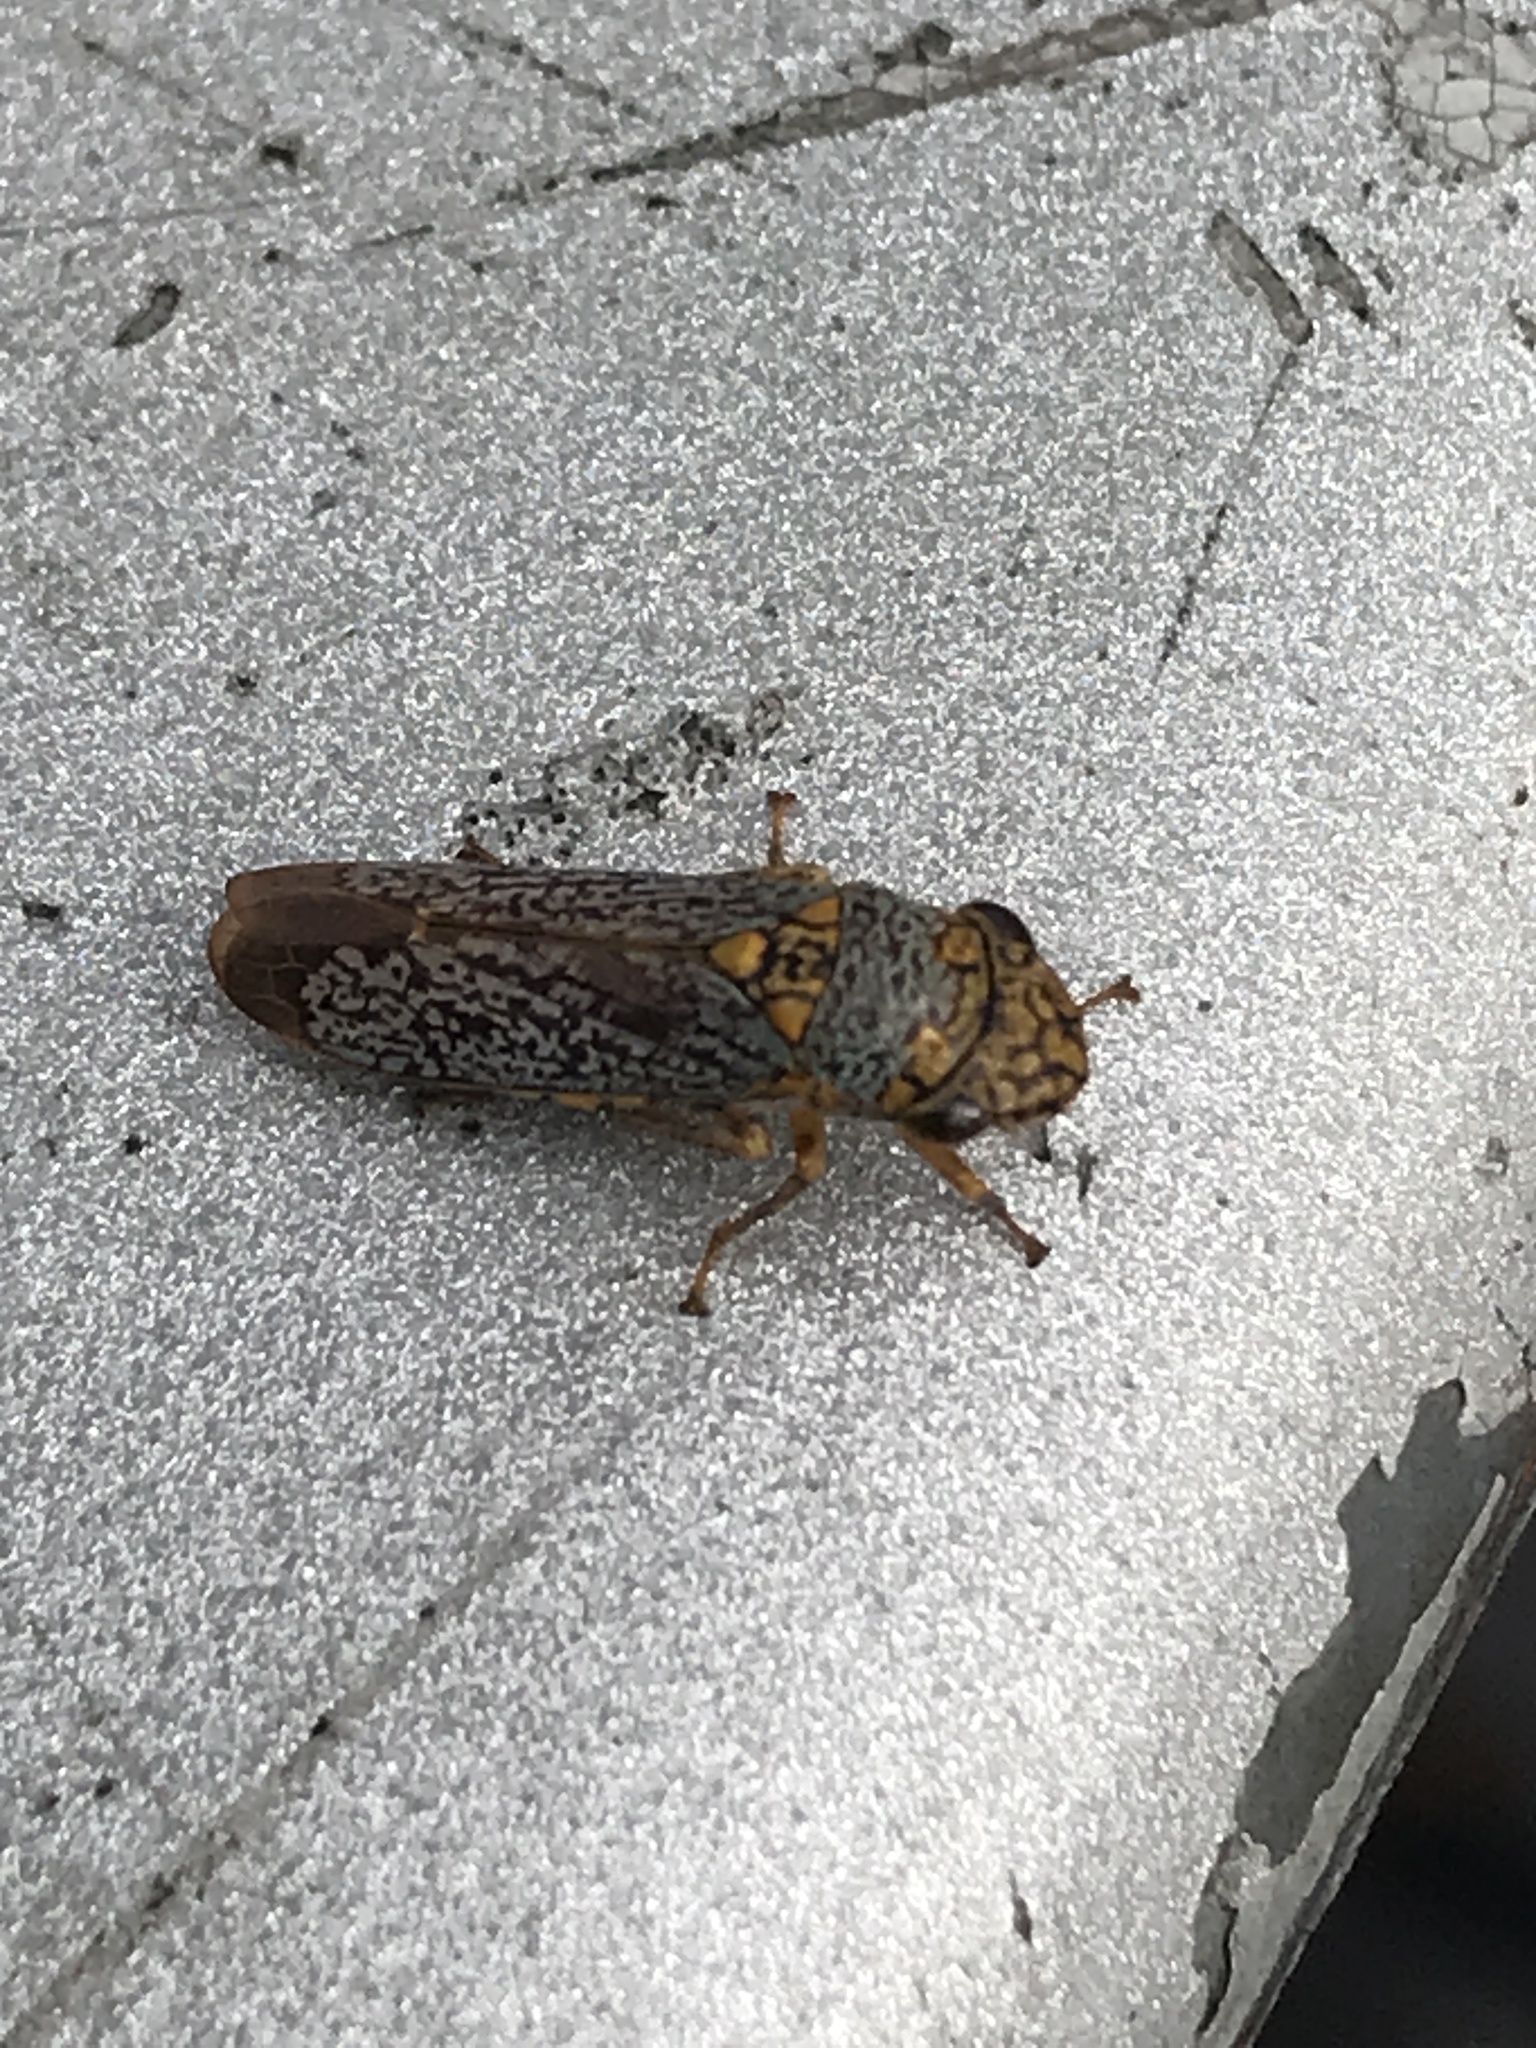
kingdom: Animalia
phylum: Arthropoda
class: Insecta
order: Hemiptera
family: Cicadellidae
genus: Oncometopia
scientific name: Oncometopia orbona
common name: Broad-headed sharpshooter
